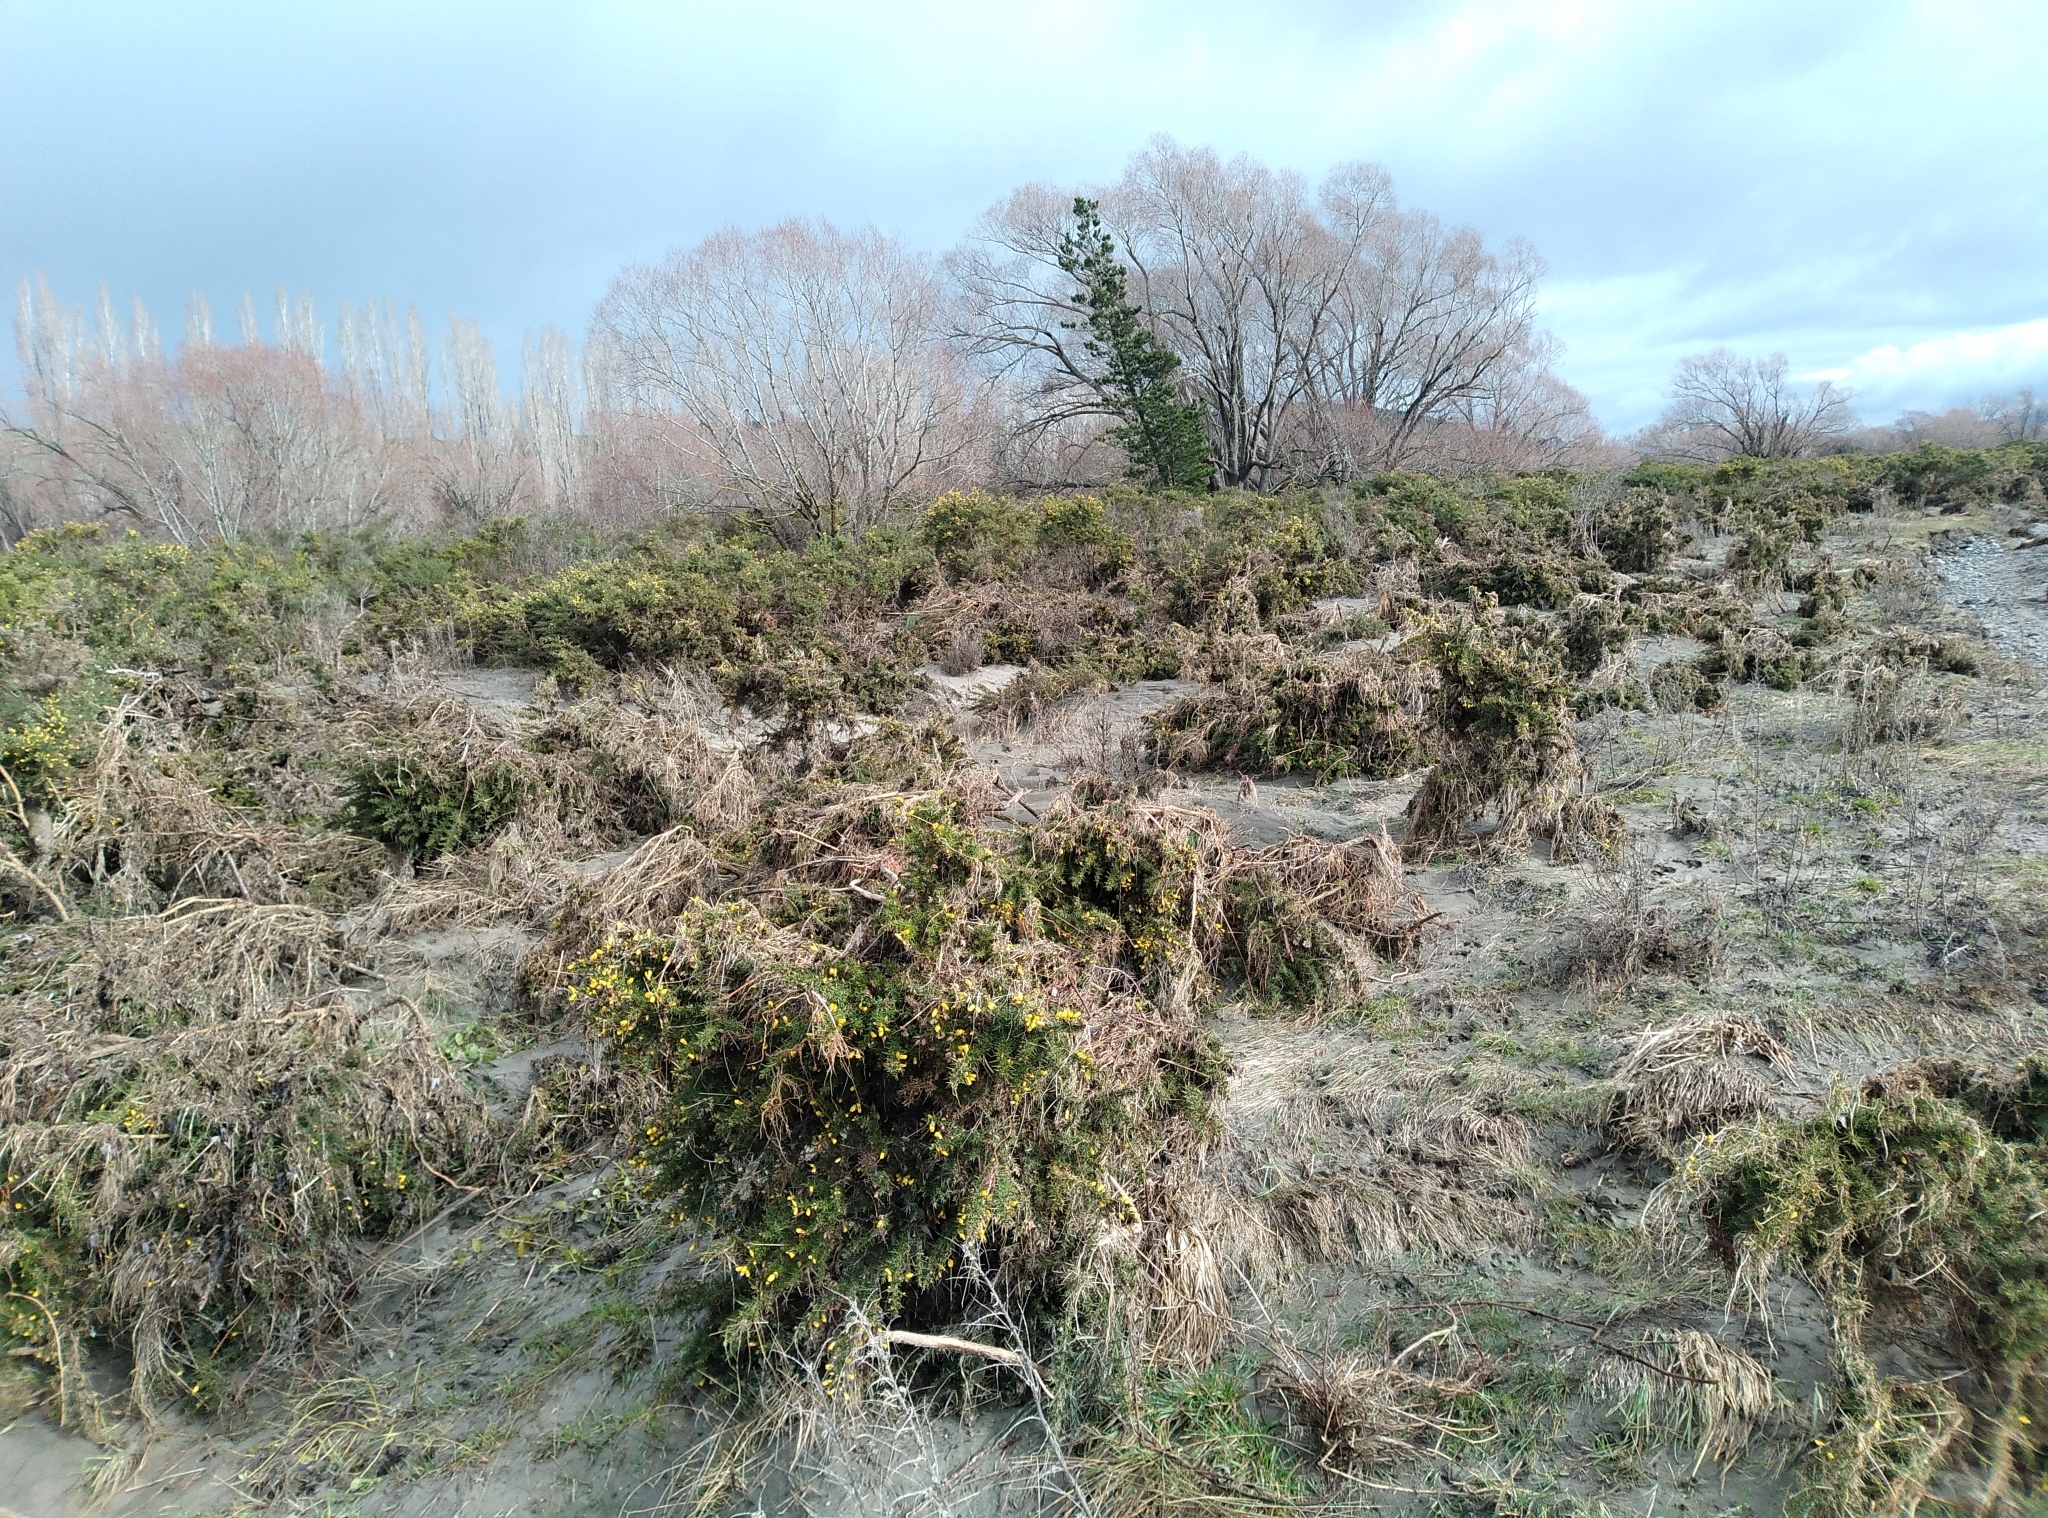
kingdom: Plantae
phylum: Tracheophyta
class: Magnoliopsida
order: Fabales
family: Fabaceae
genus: Ulex
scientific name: Ulex europaeus
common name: Common gorse
